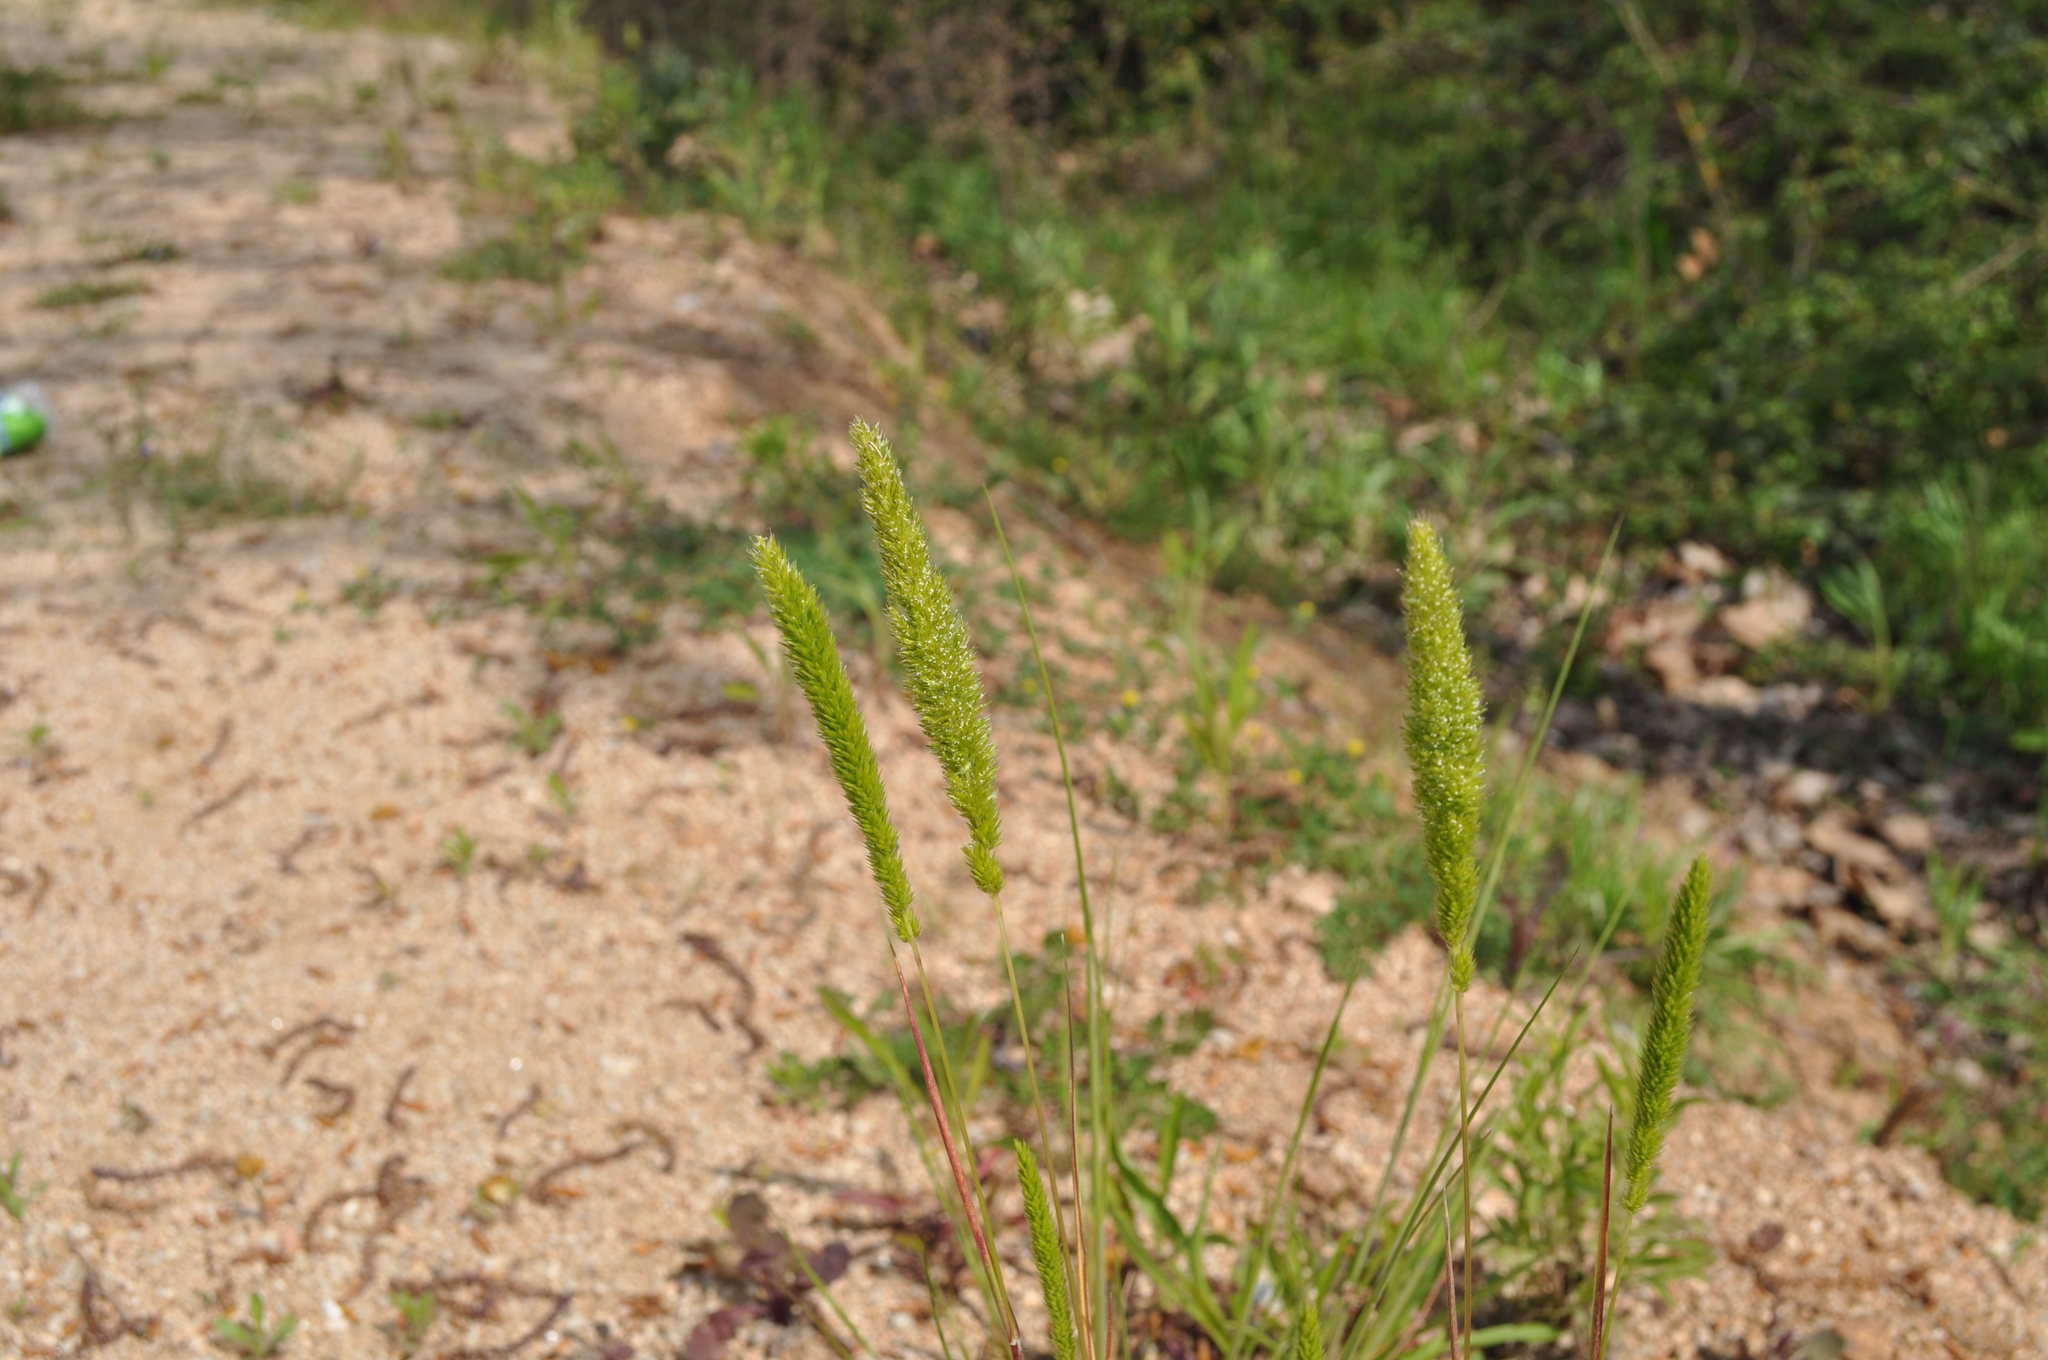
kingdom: Plantae
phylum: Tracheophyta
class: Liliopsida
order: Poales
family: Poaceae
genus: Rostraria
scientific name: Rostraria cristata
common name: Mediterranean hair-grass
